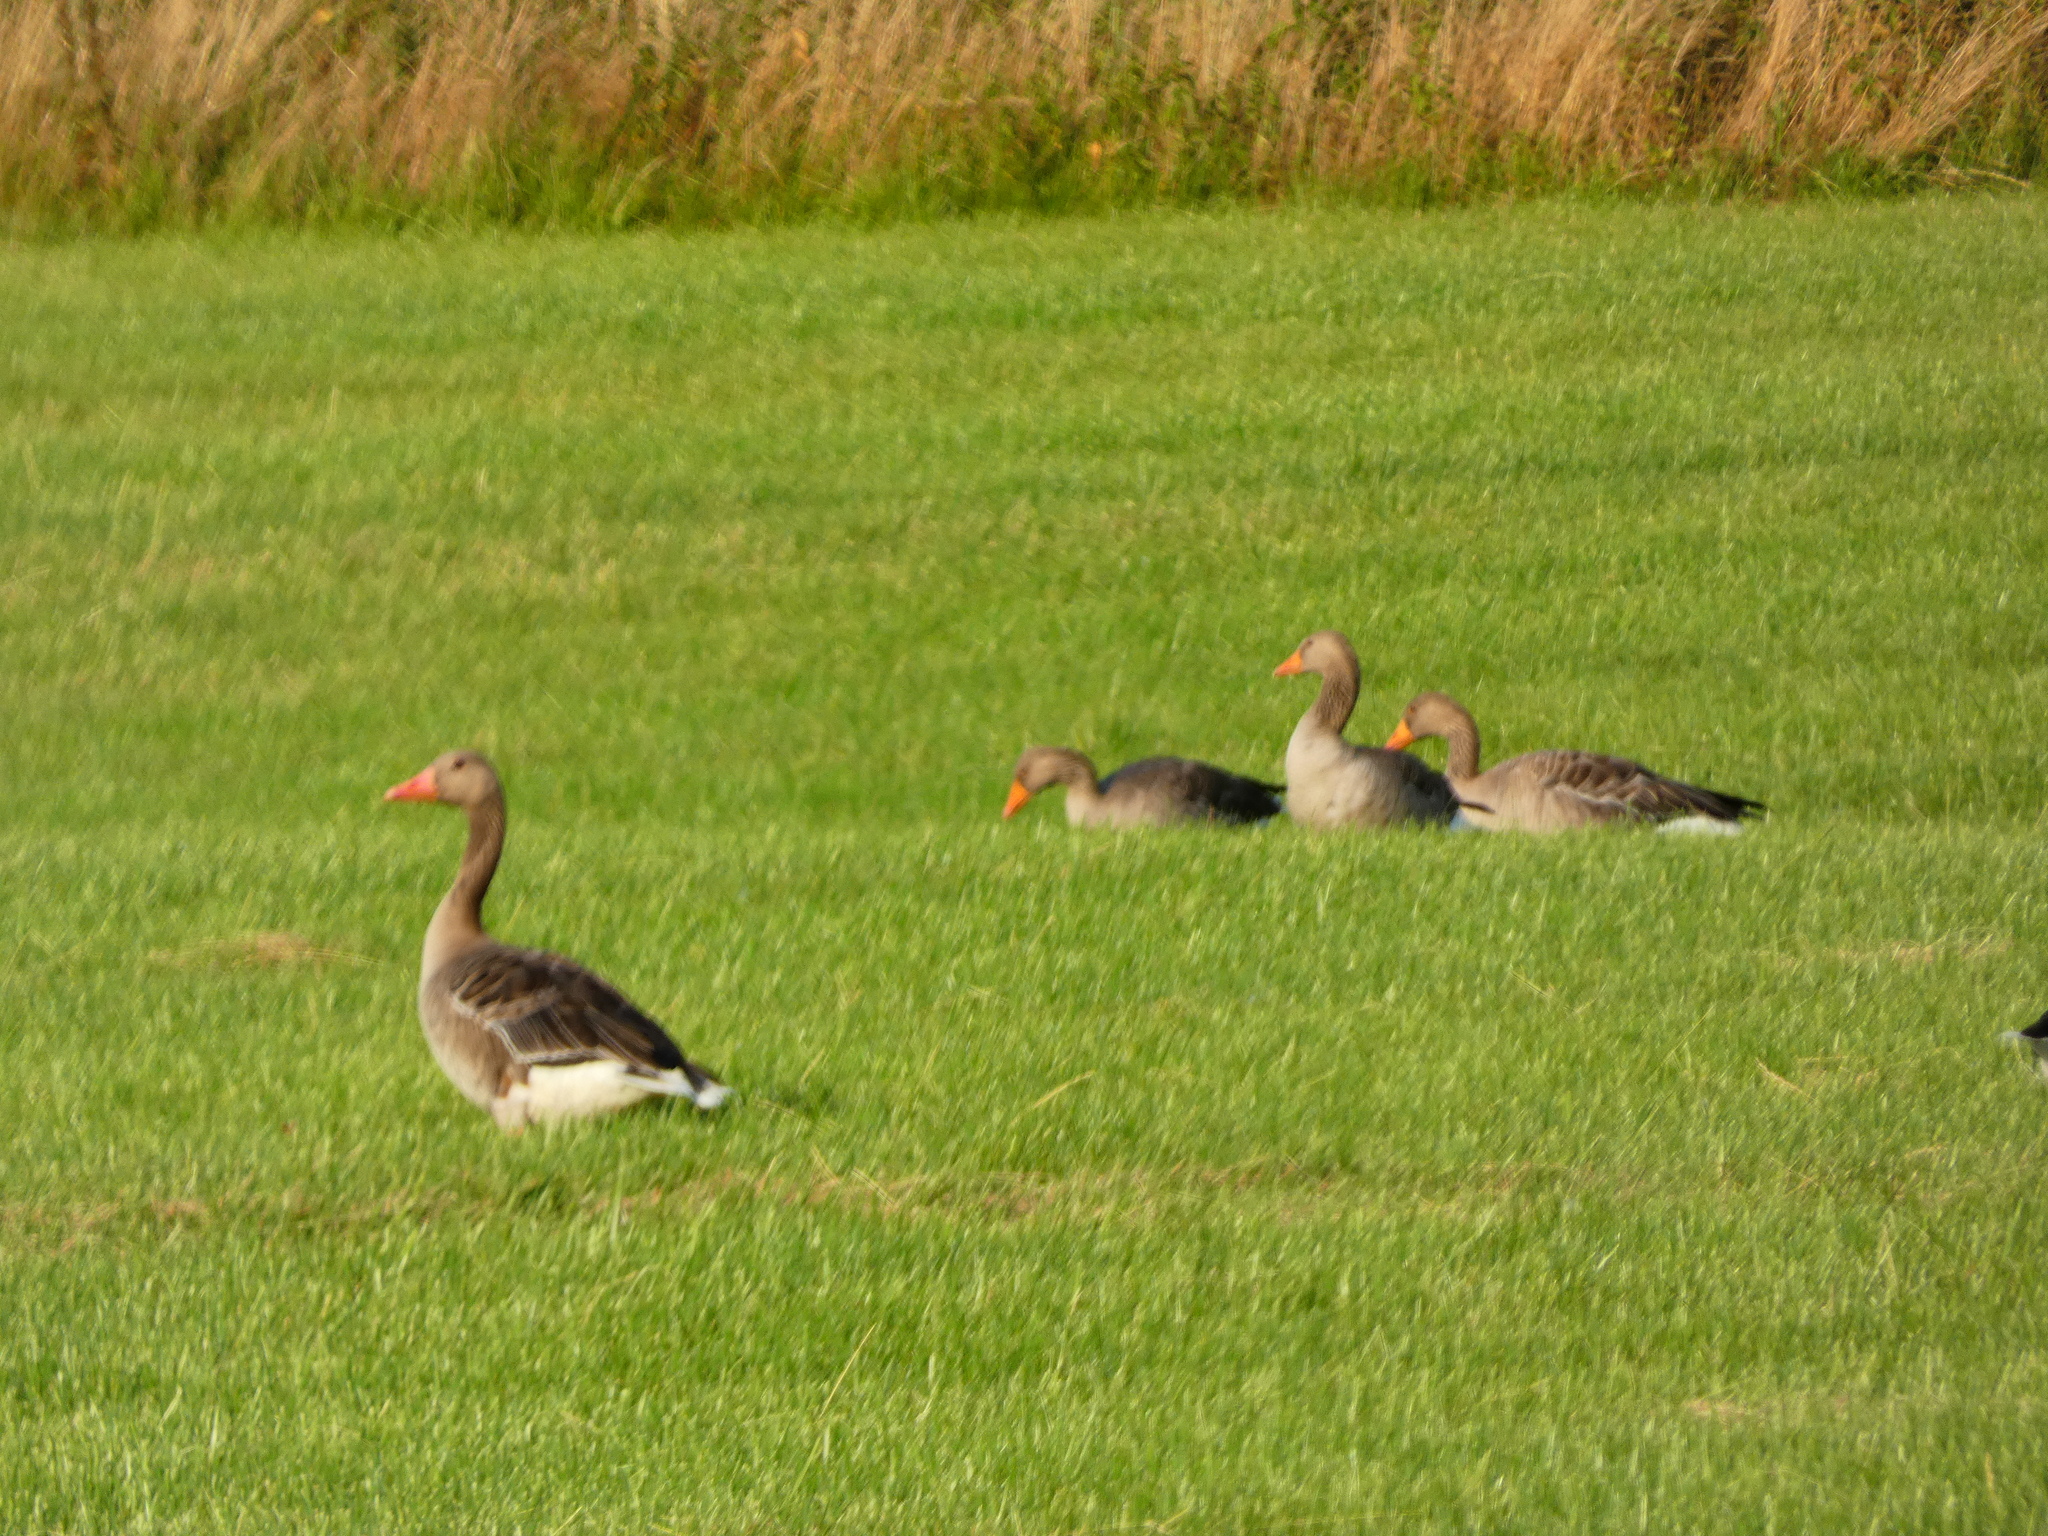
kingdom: Animalia
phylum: Chordata
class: Aves
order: Anseriformes
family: Anatidae
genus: Anser
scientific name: Anser anser
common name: Greylag goose
